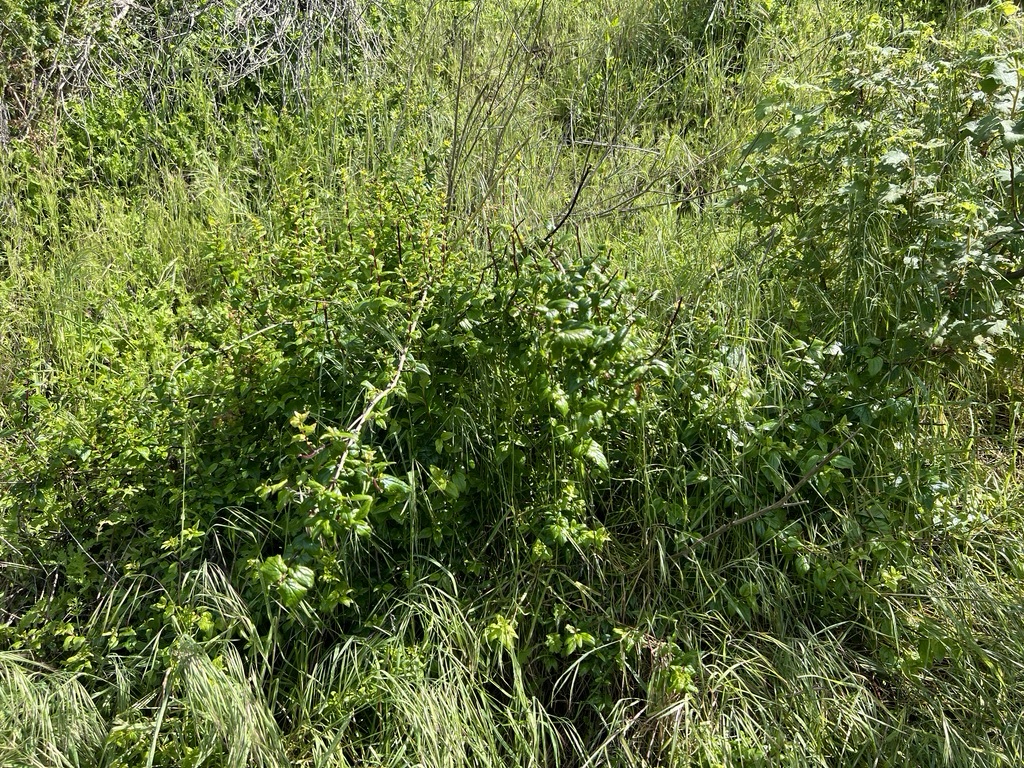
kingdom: Plantae
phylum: Tracheophyta
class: Magnoliopsida
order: Lamiales
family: Plantaginaceae
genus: Keckiella
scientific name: Keckiella cordifolia
